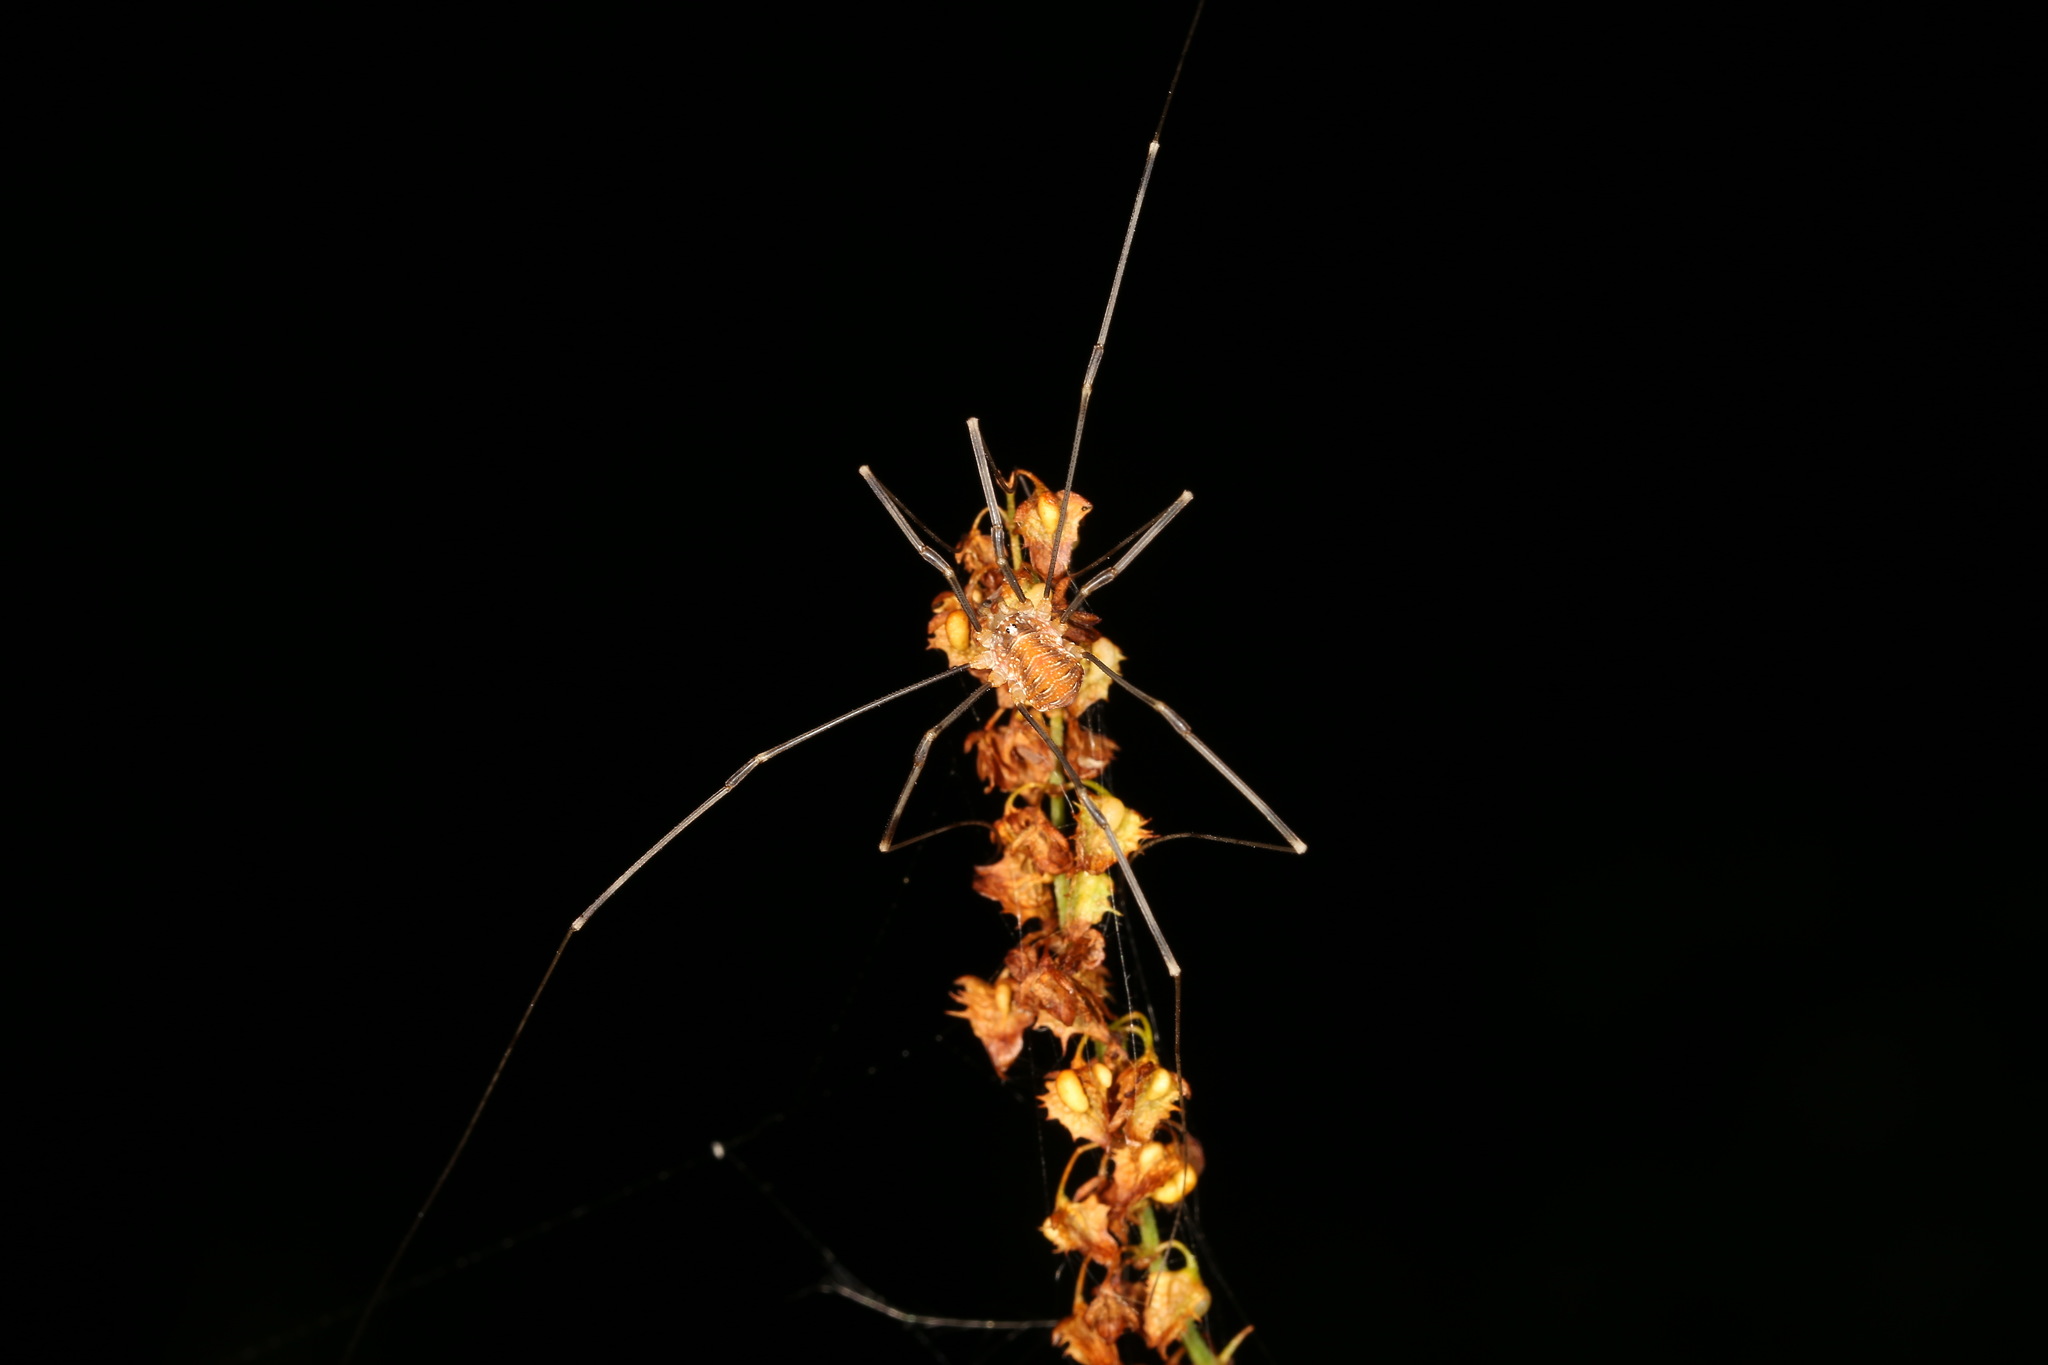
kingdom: Animalia
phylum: Arthropoda
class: Arachnida
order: Opiliones
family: Phalangiidae
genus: Opilio
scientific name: Opilio canestrinii
